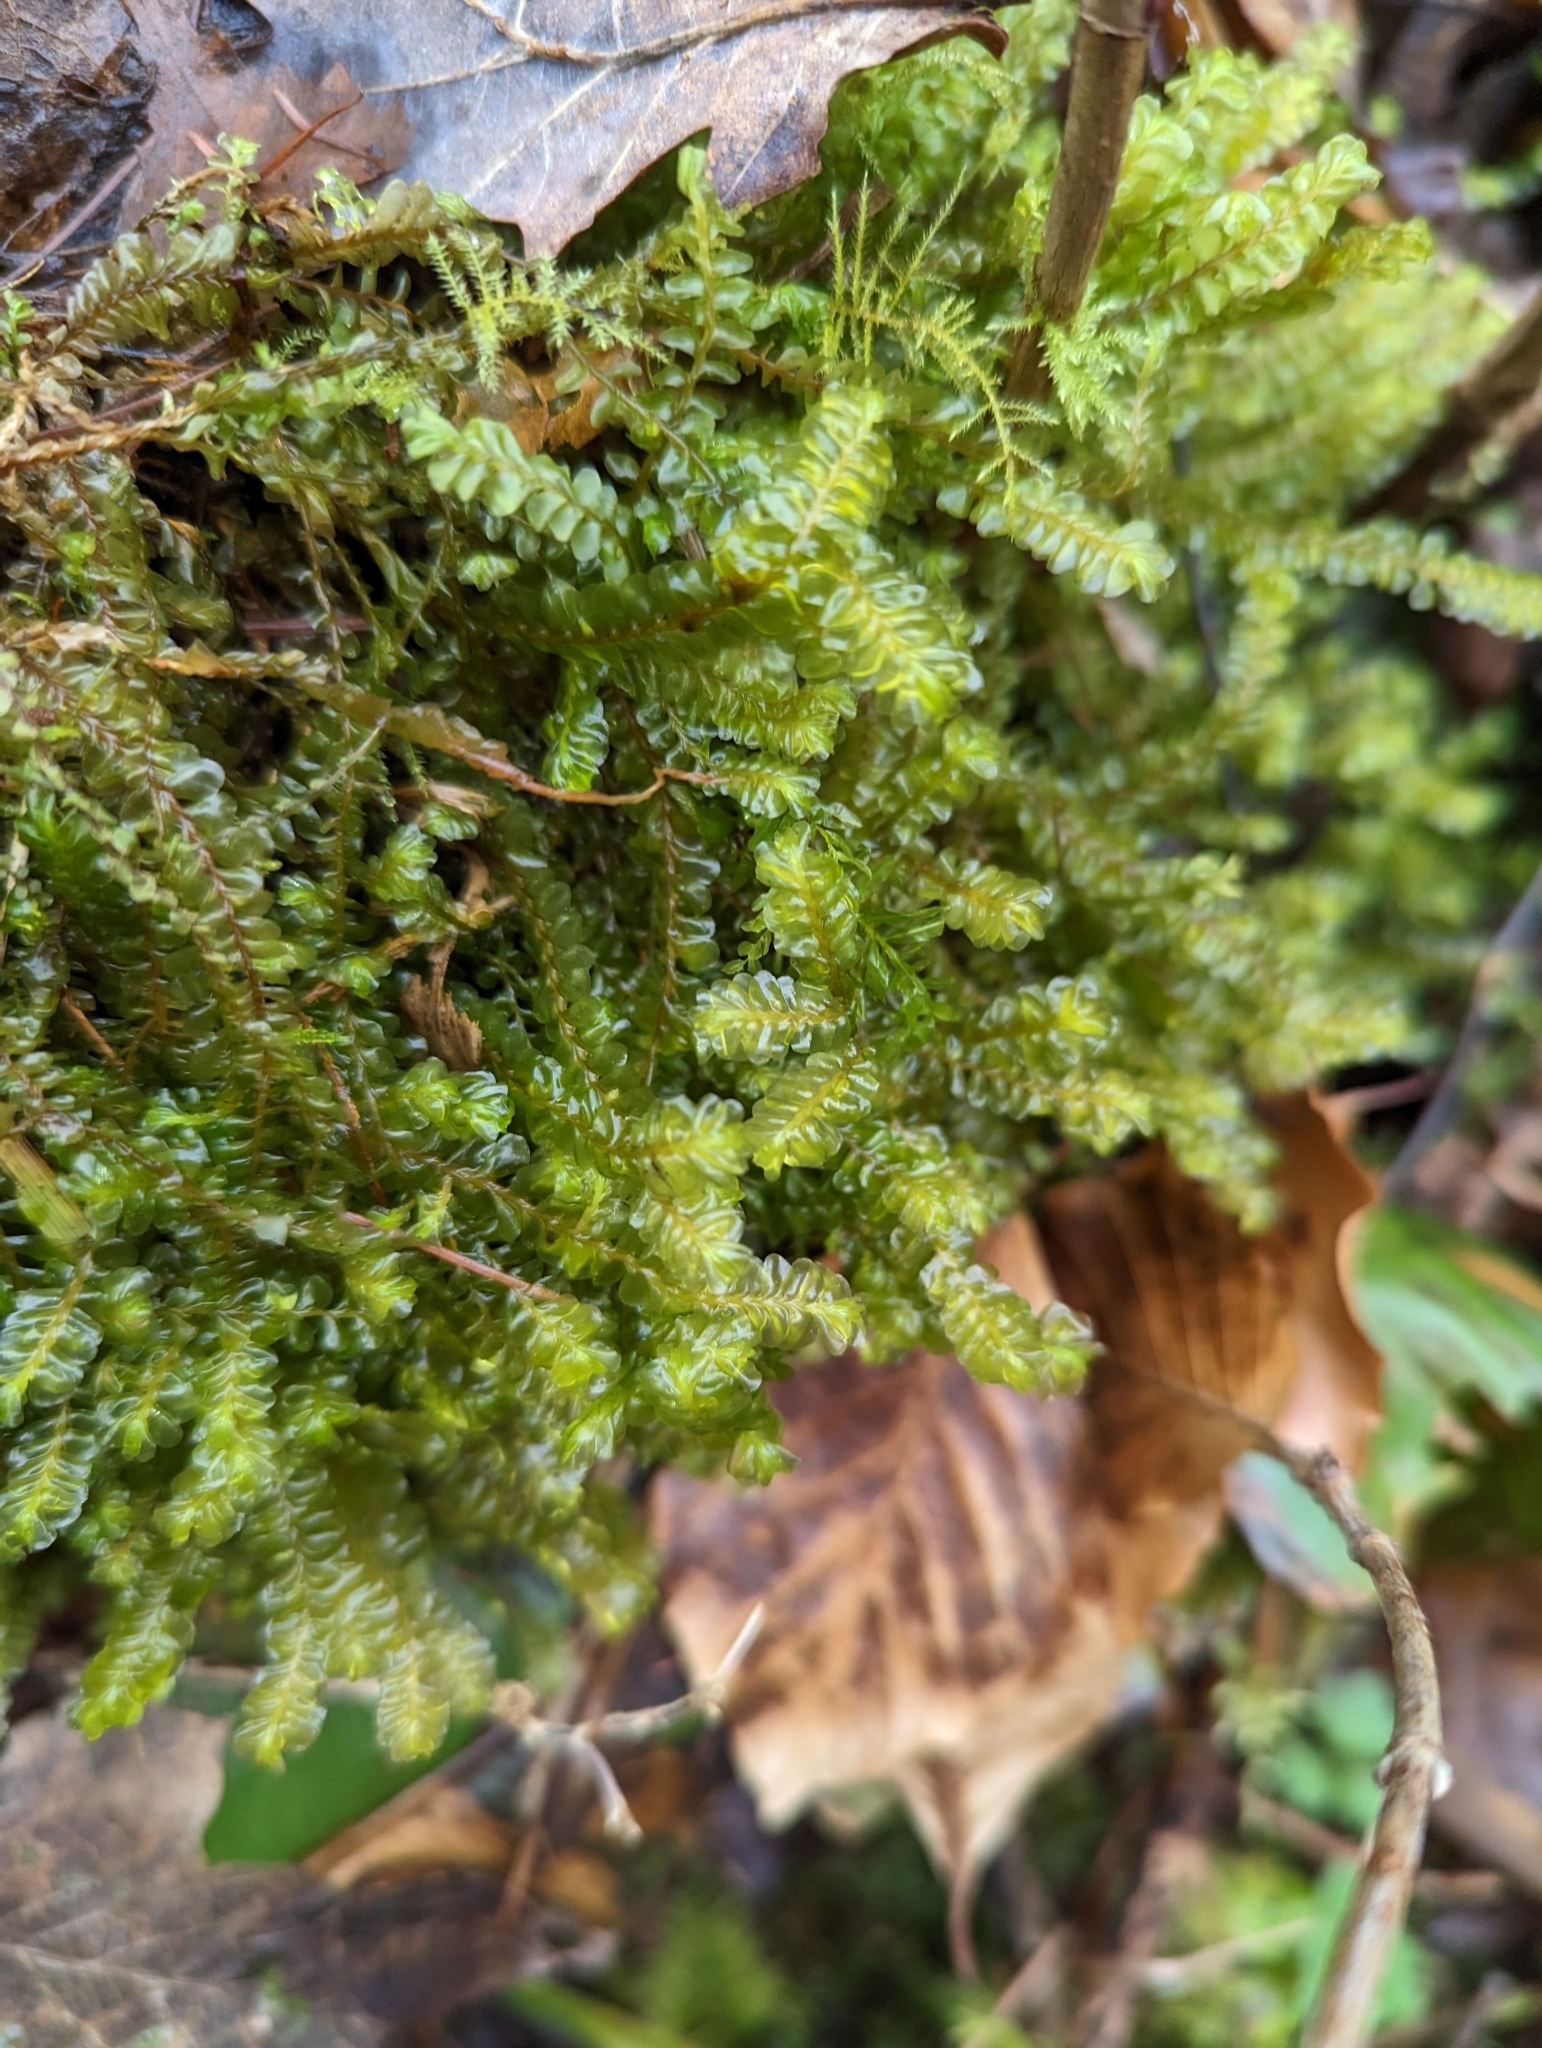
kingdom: Plantae
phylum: Marchantiophyta
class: Jungermanniopsida
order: Jungermanniales
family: Plagiochilaceae
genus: Plagiochila
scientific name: Plagiochila asplenioides
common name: Greater featherwort
